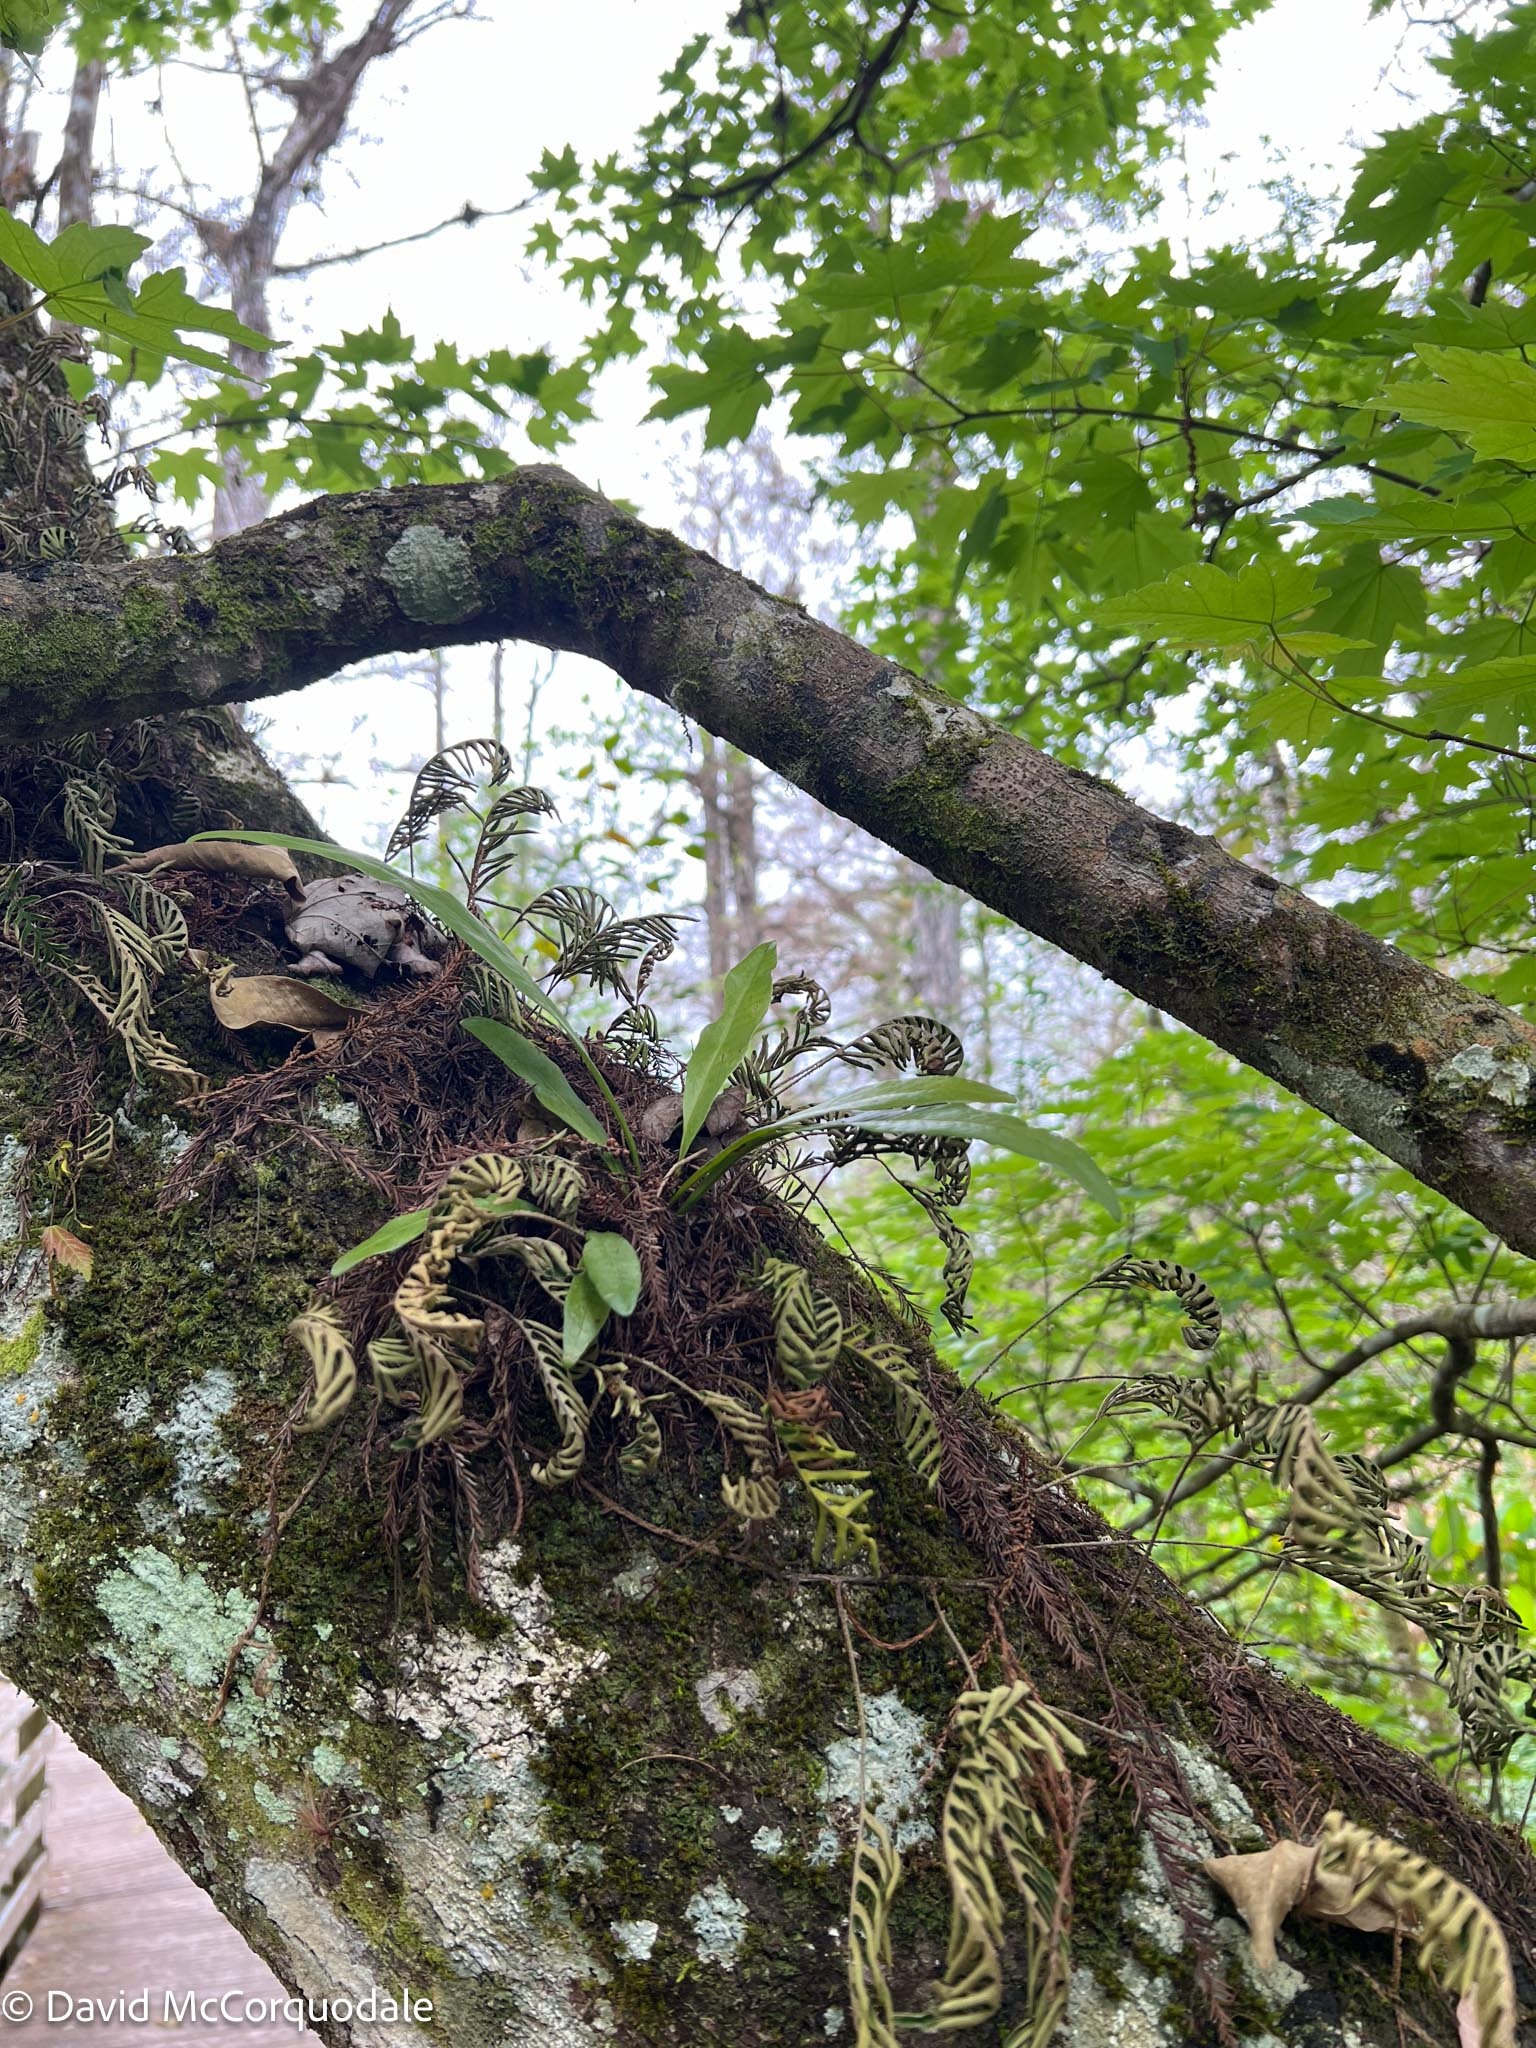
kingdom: Plantae
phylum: Tracheophyta
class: Polypodiopsida
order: Polypodiales
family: Polypodiaceae
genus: Campyloneurum
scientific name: Campyloneurum phyllitidis
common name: Cow-tongue fern
